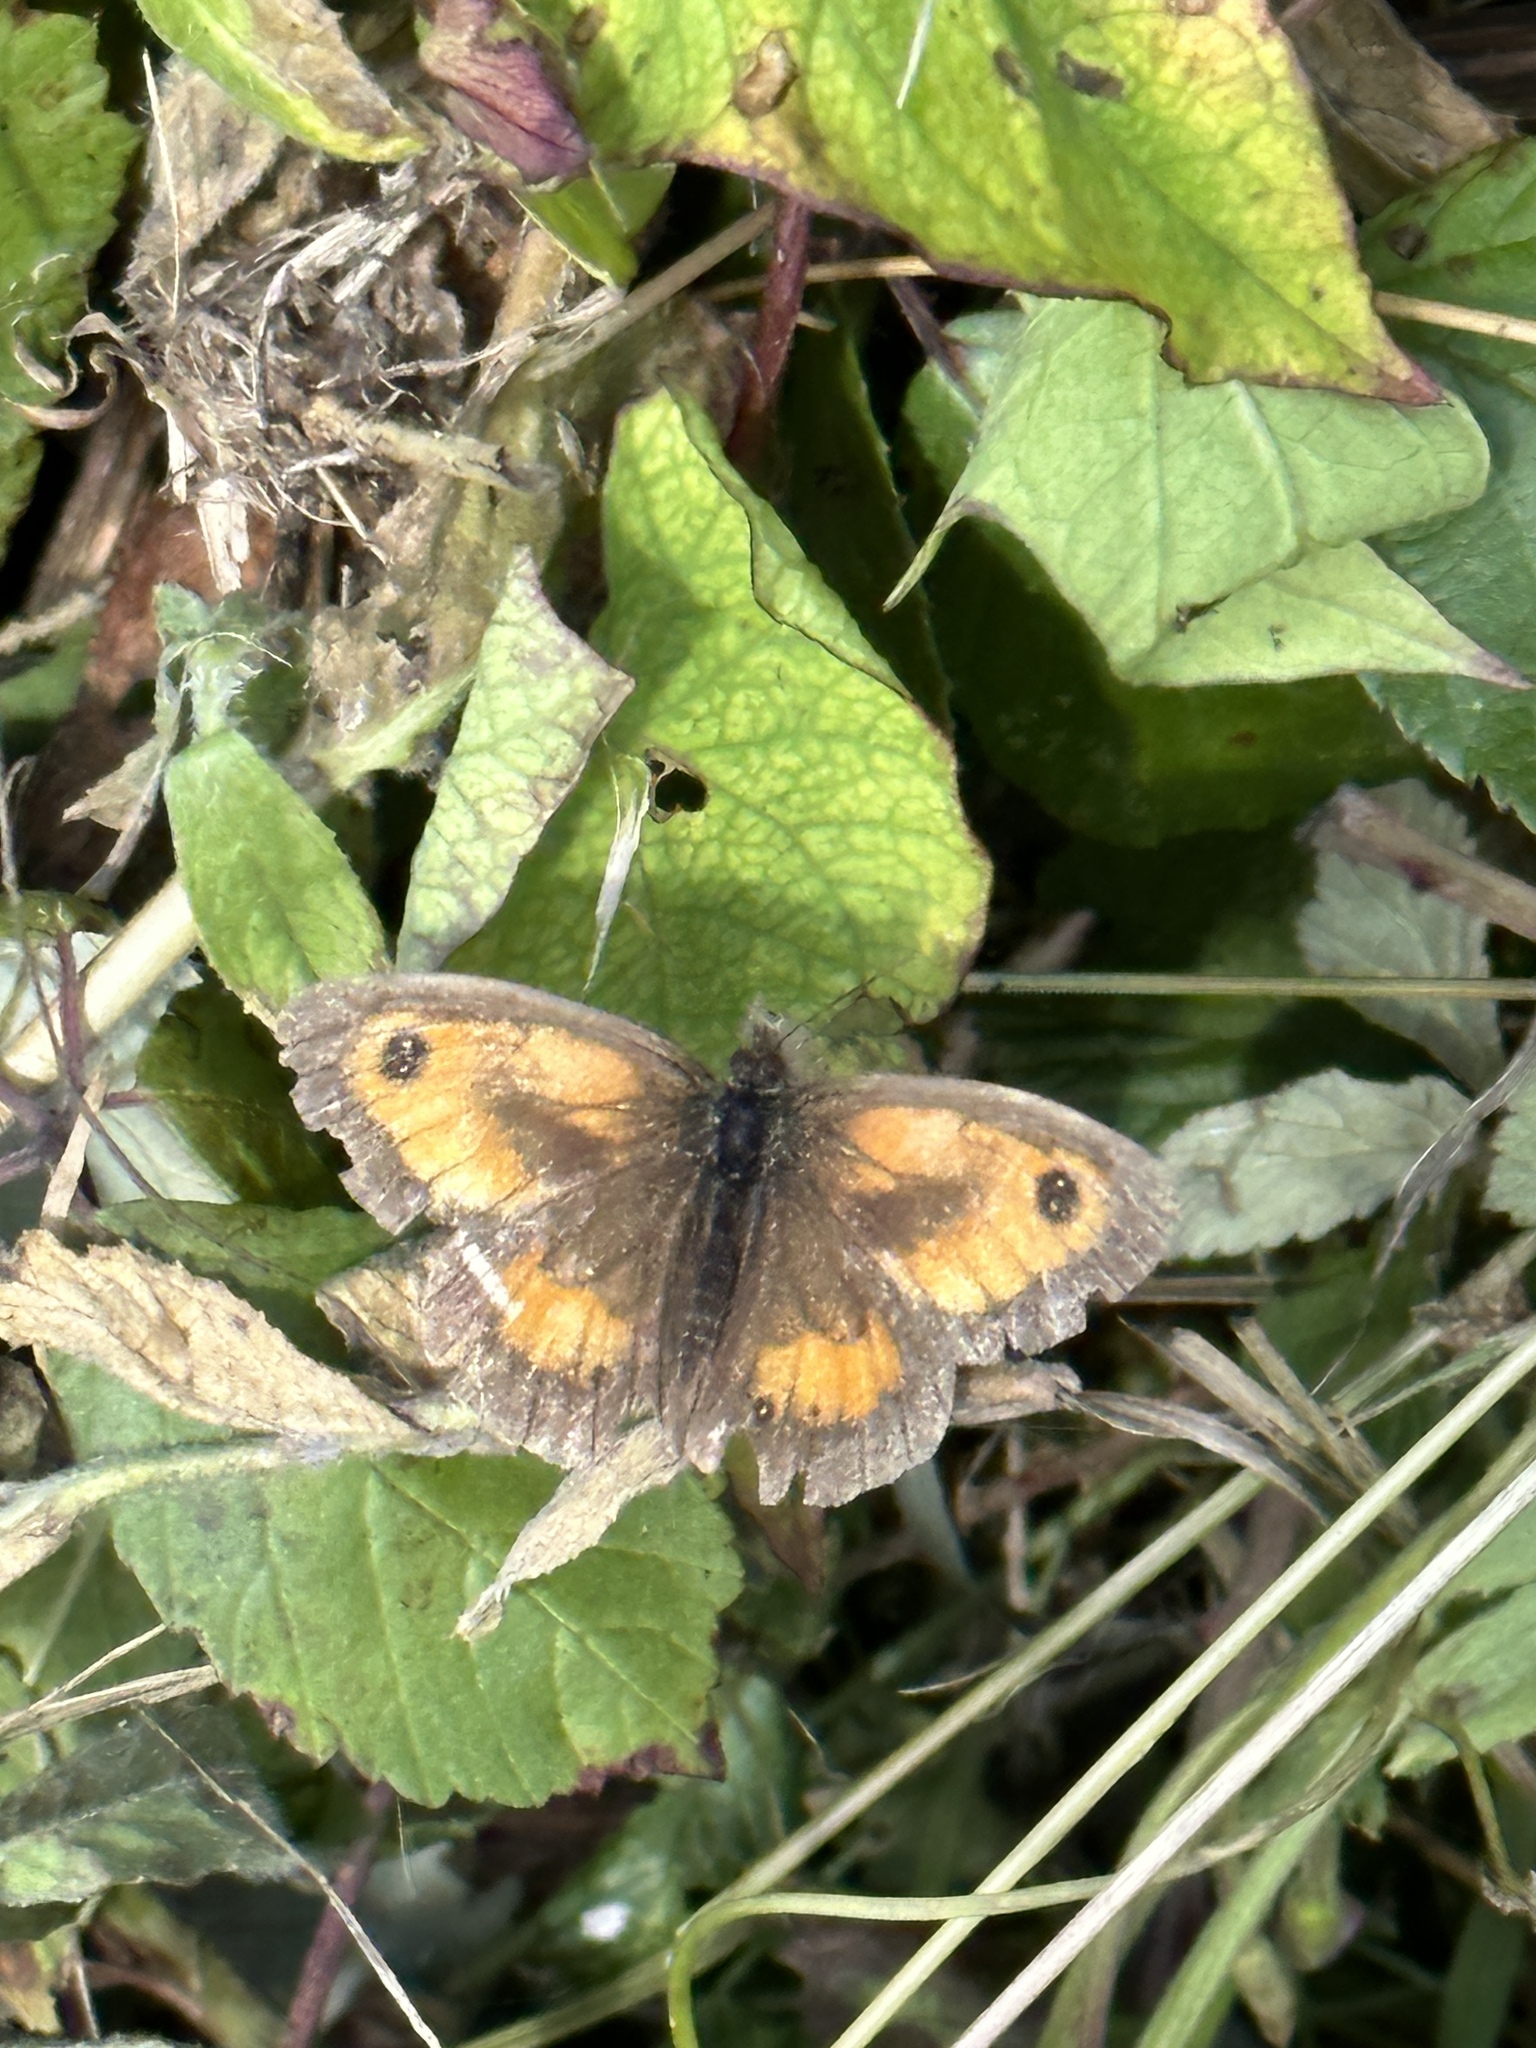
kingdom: Animalia
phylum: Arthropoda
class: Insecta
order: Lepidoptera
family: Nymphalidae
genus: Pyronia
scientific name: Pyronia tithonus
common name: Gatekeeper
